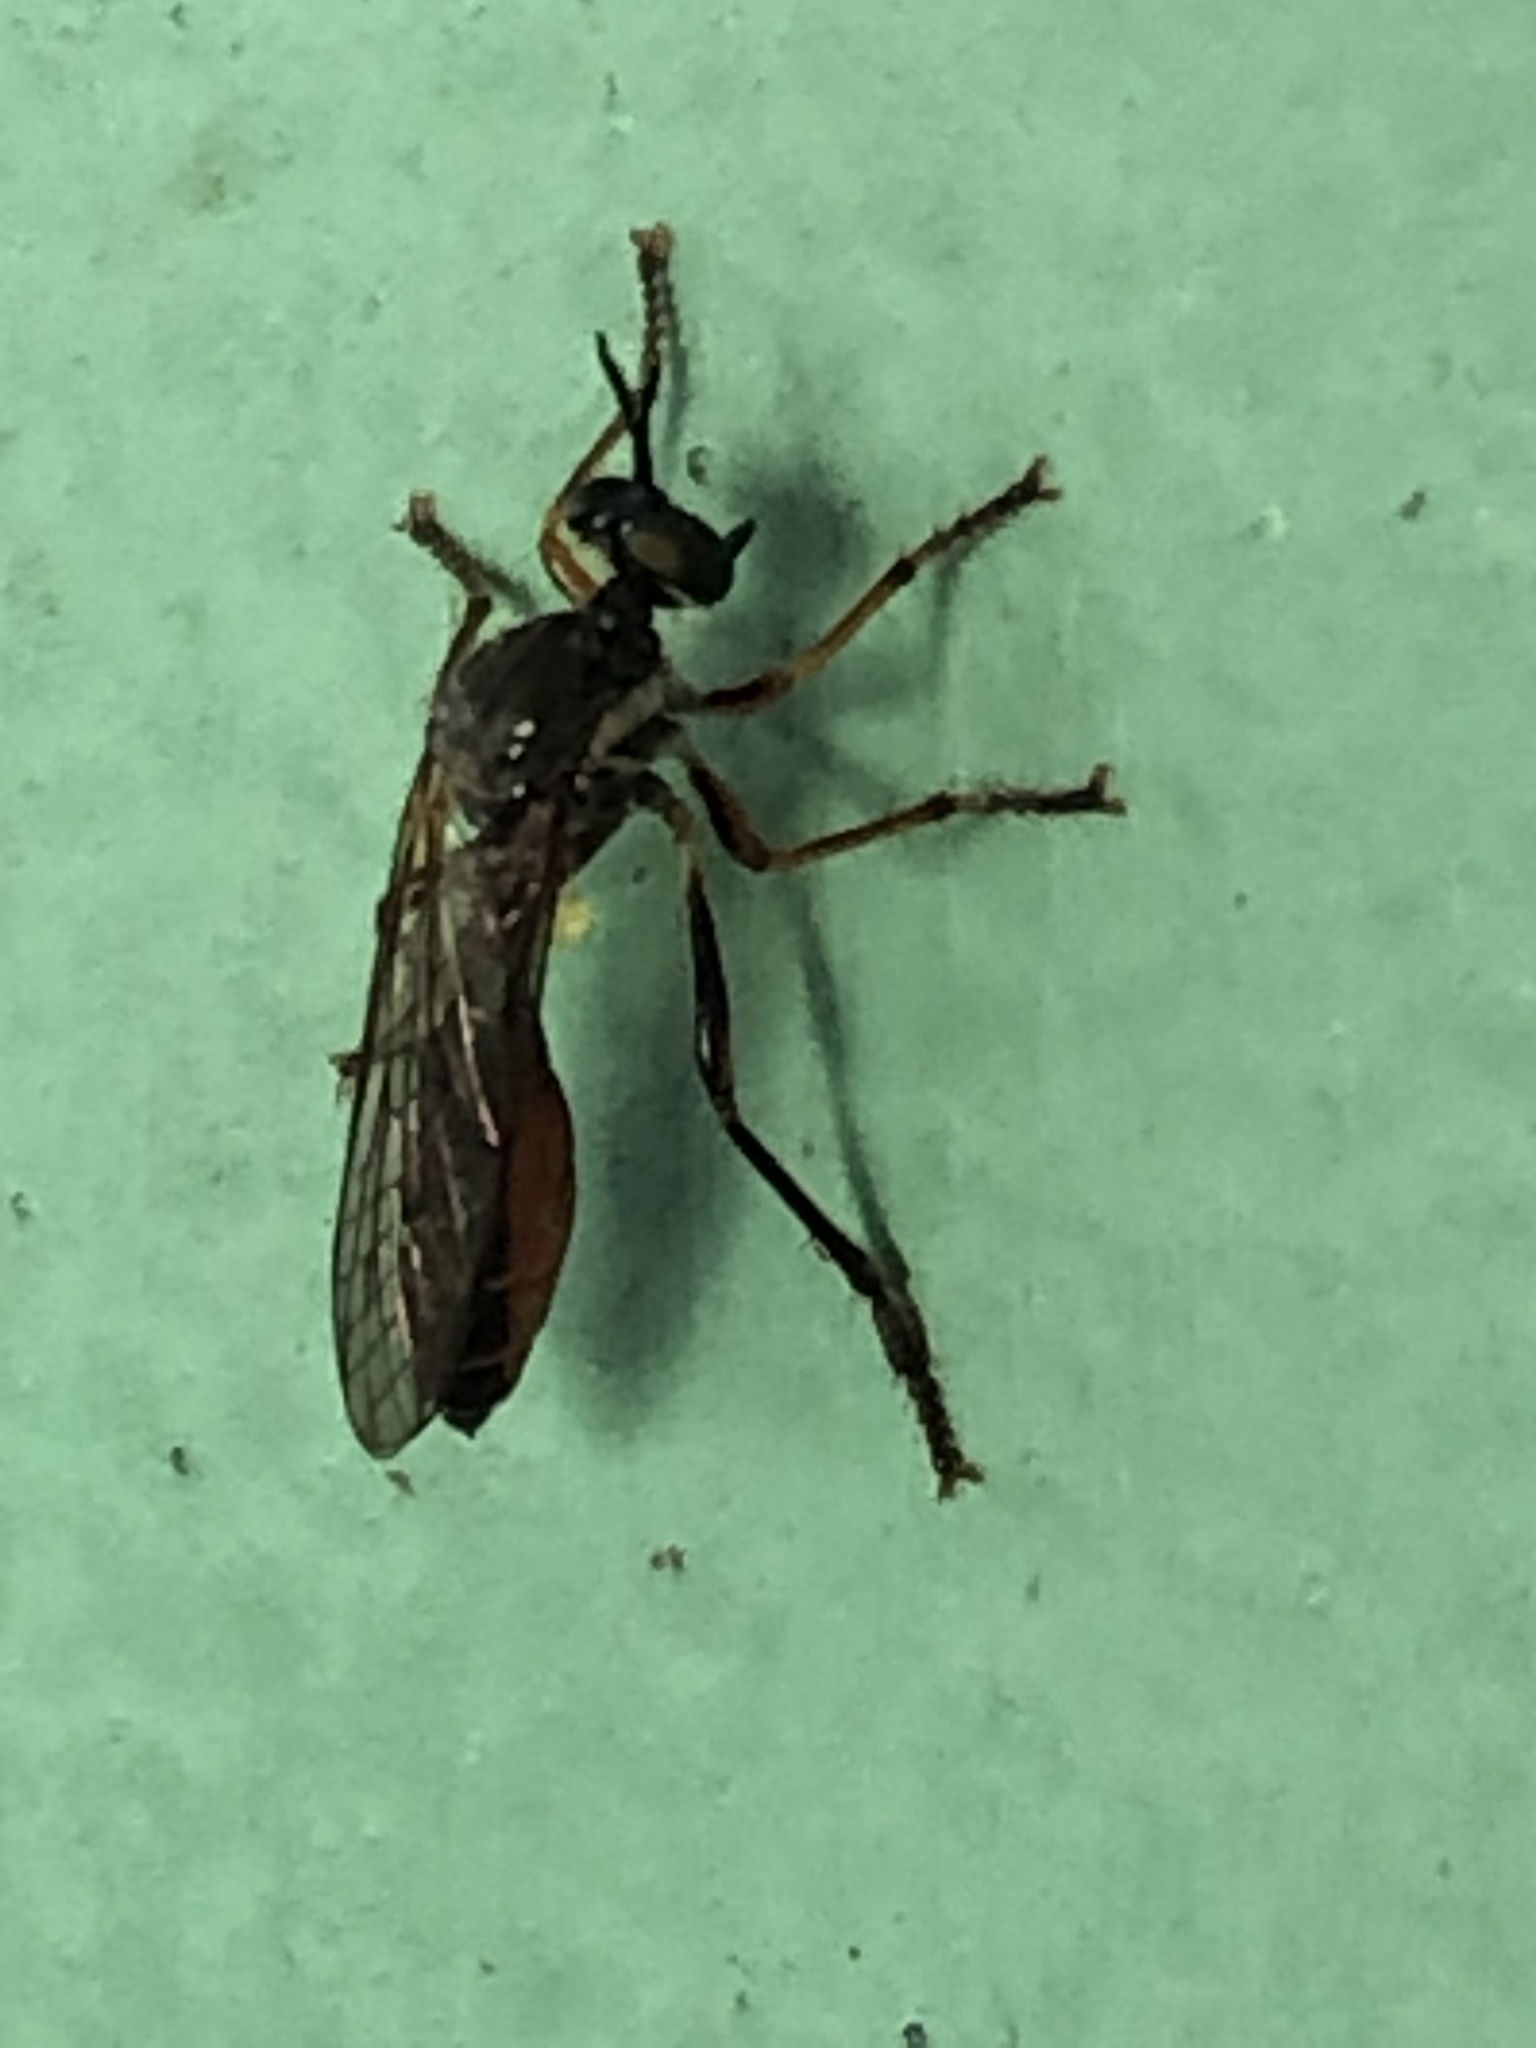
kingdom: Animalia
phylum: Arthropoda
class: Insecta
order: Diptera
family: Asilidae
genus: Dioctria
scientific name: Dioctria hyalipennis
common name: Stripe-legged robberfly
